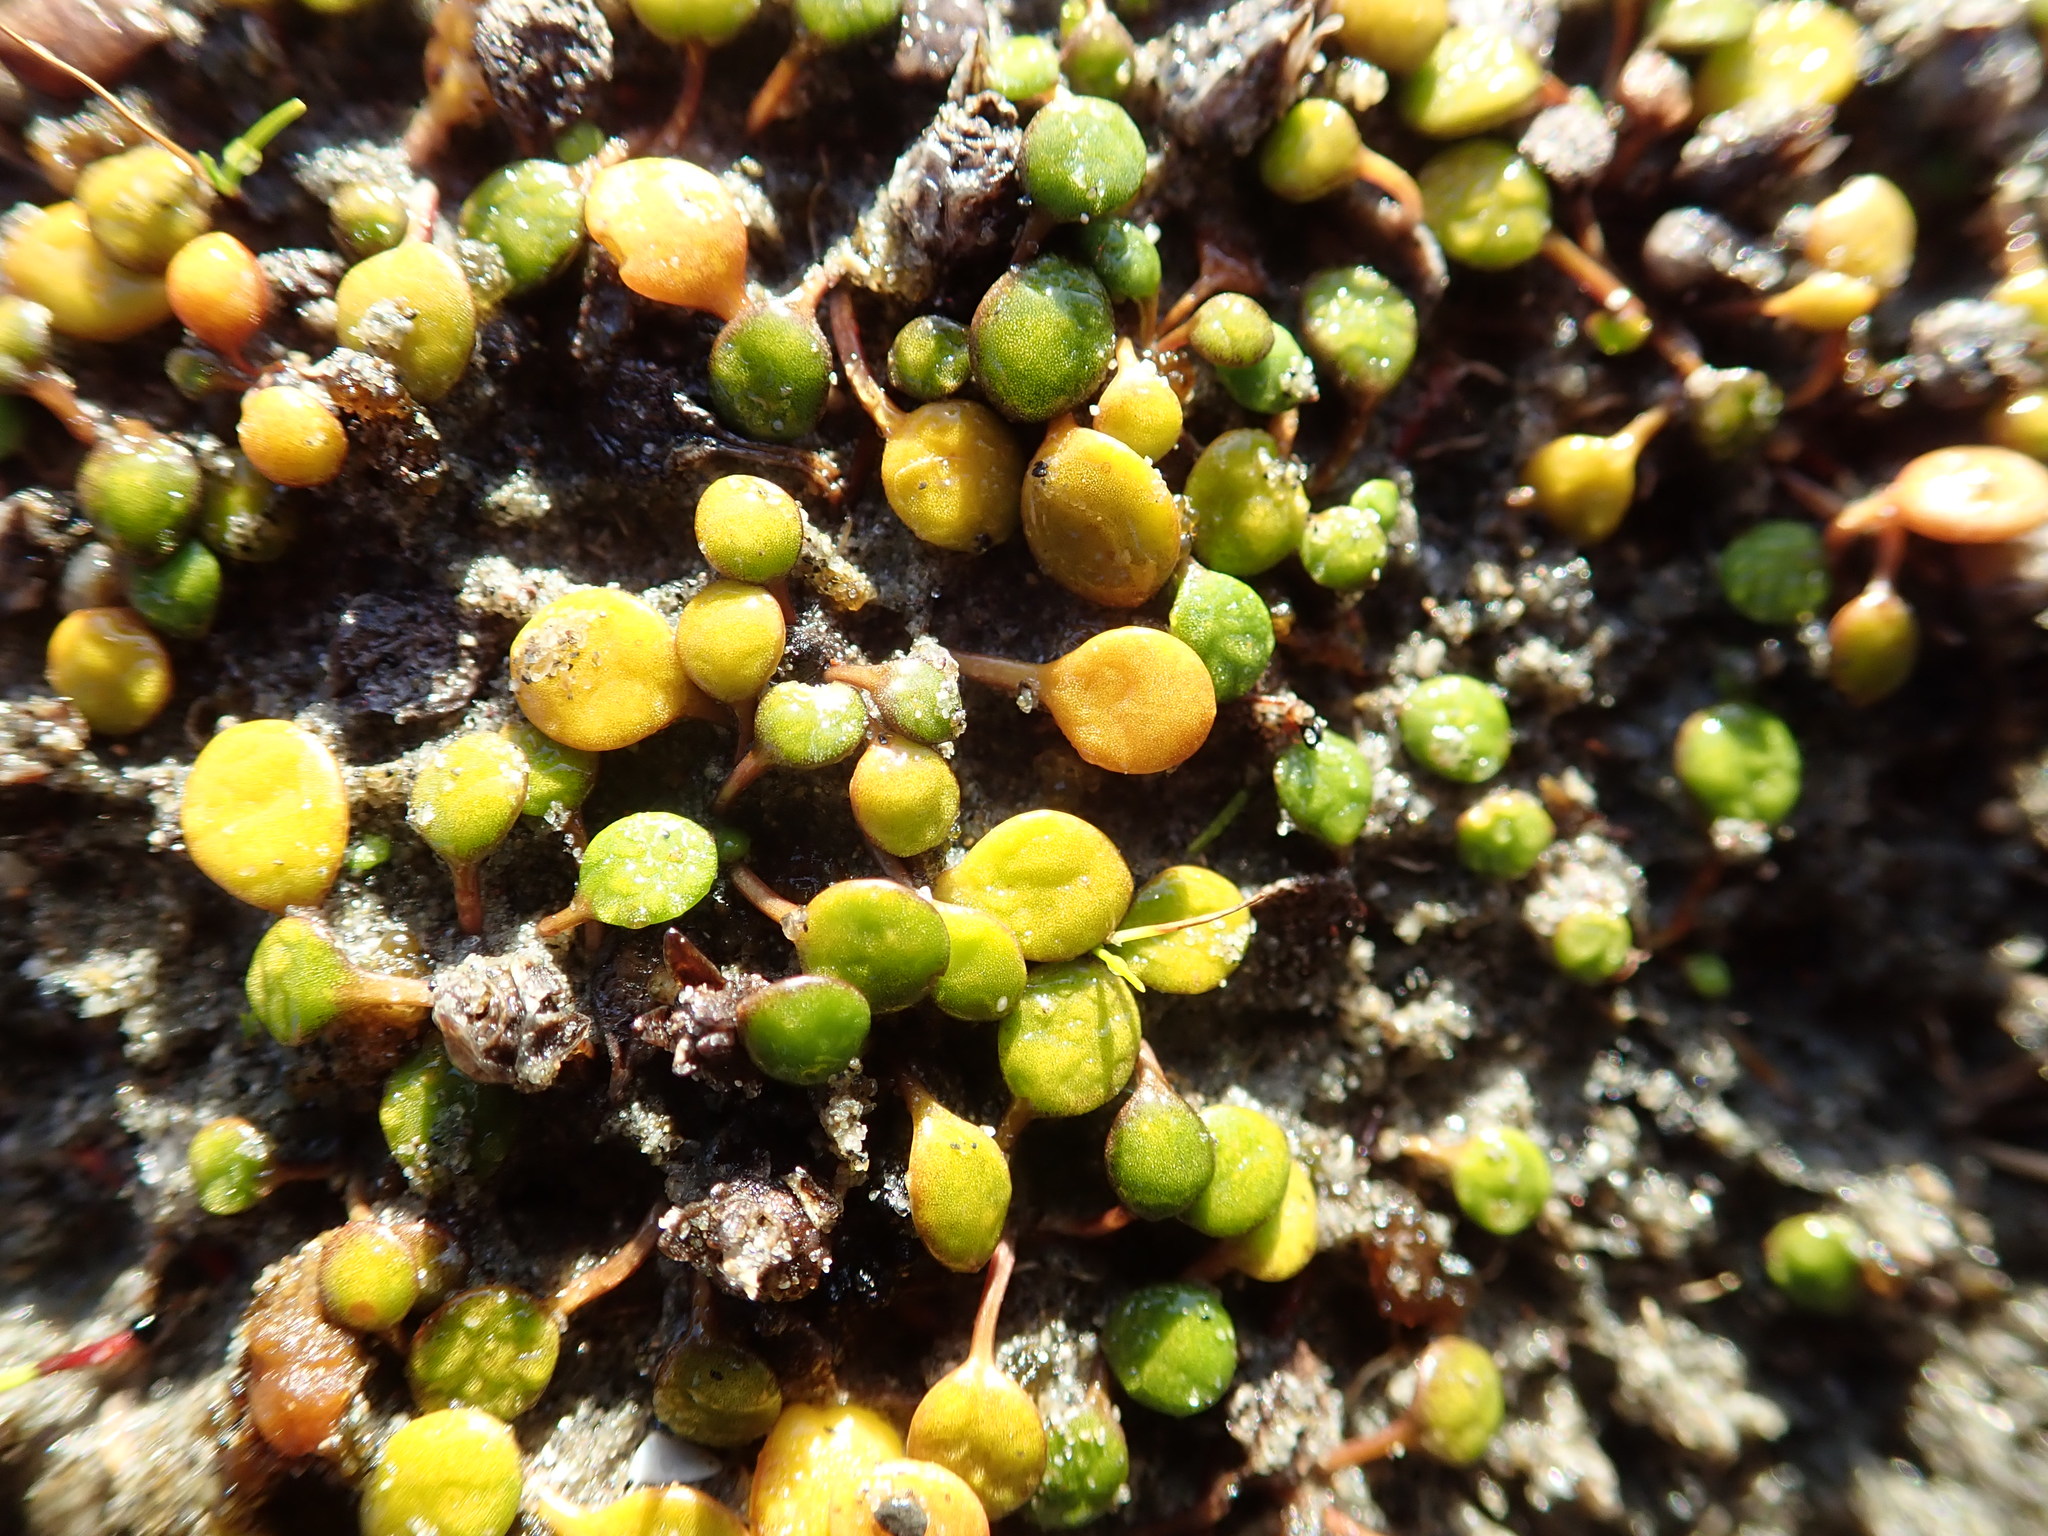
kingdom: Plantae
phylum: Tracheophyta
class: Magnoliopsida
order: Asterales
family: Goodeniaceae
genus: Goodenia
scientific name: Goodenia heenanii
